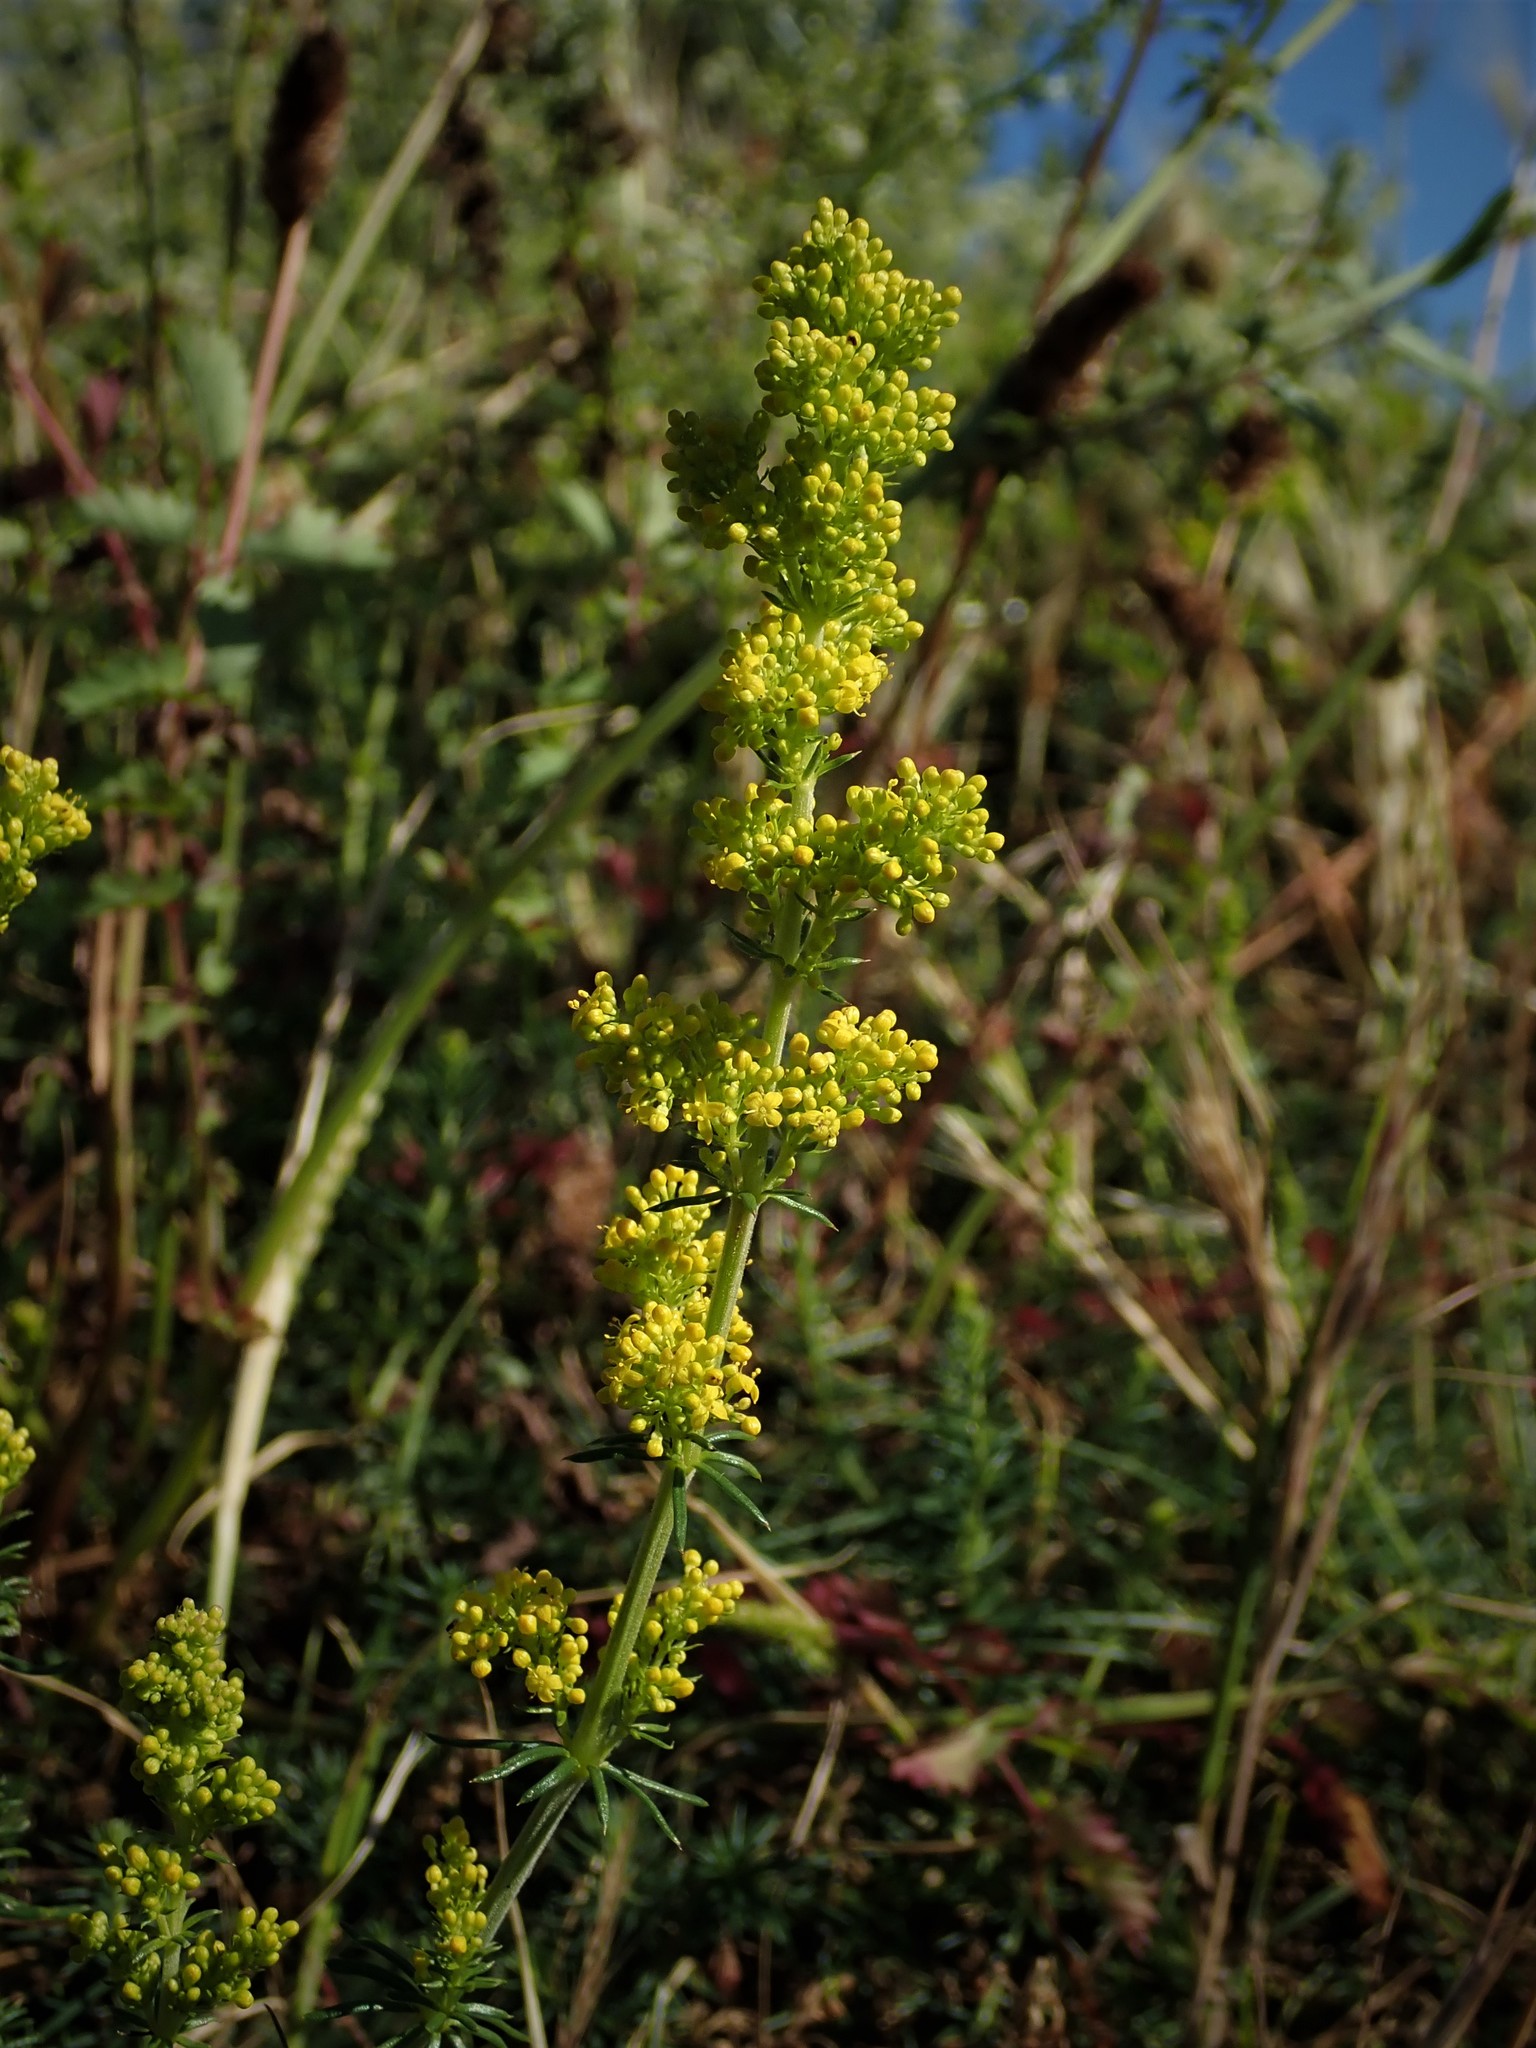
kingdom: Plantae
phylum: Tracheophyta
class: Magnoliopsida
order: Gentianales
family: Rubiaceae
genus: Galium
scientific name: Galium verum
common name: Lady's bedstraw
